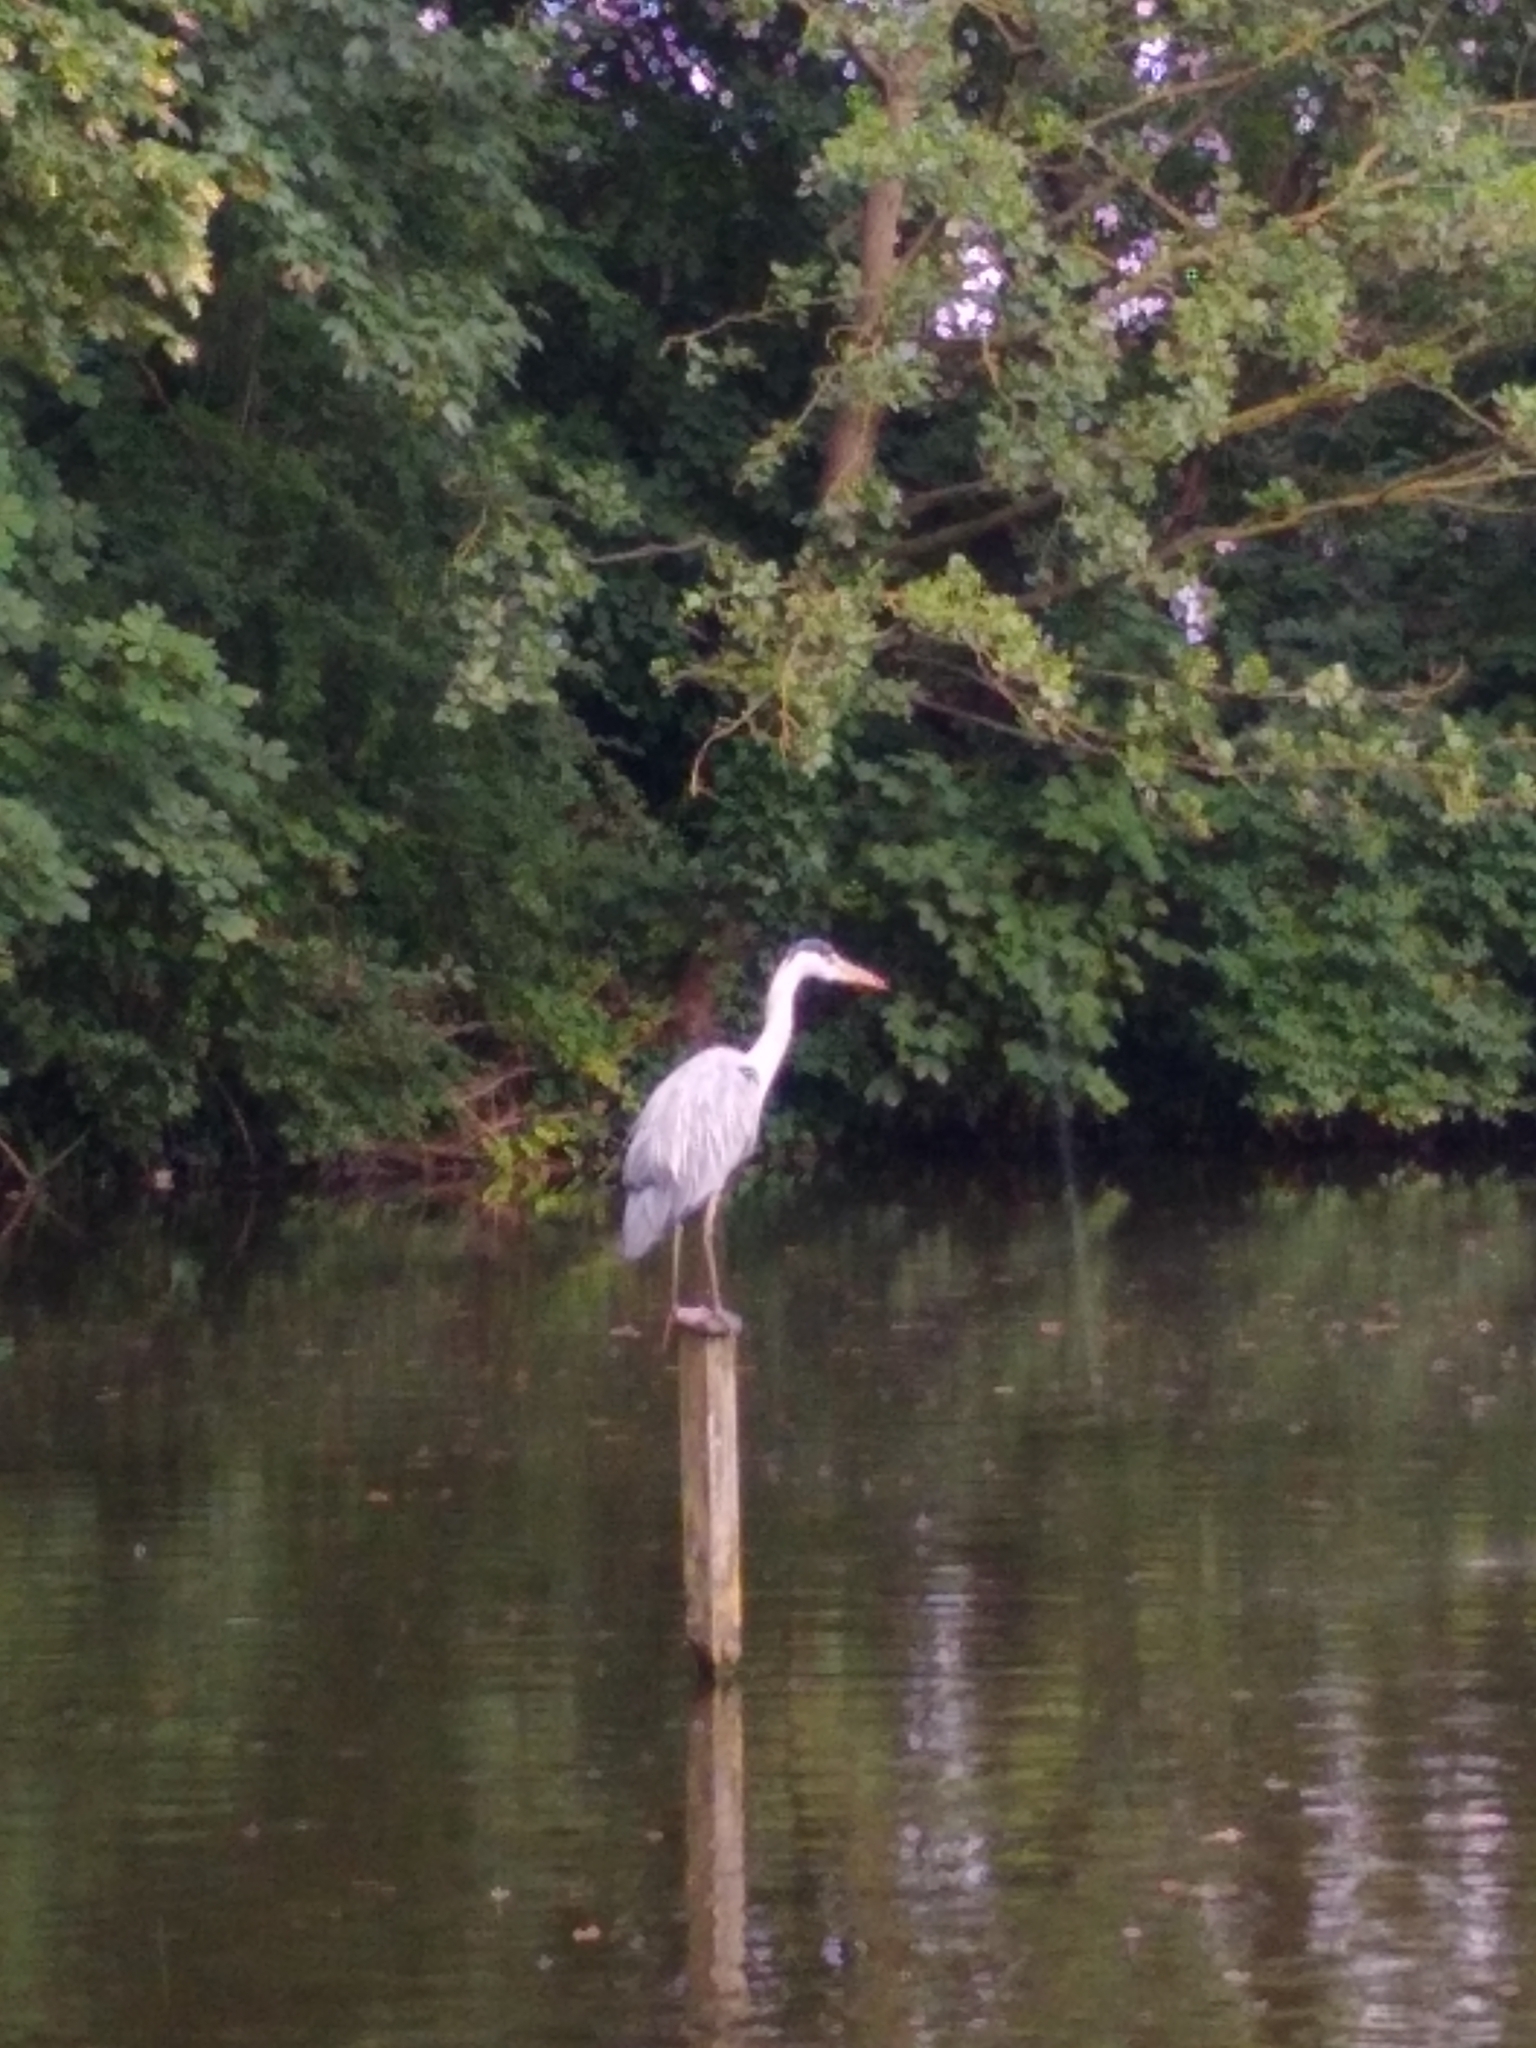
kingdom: Animalia
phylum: Chordata
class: Aves
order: Pelecaniformes
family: Ardeidae
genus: Ardea
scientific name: Ardea cinerea
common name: Grey heron
